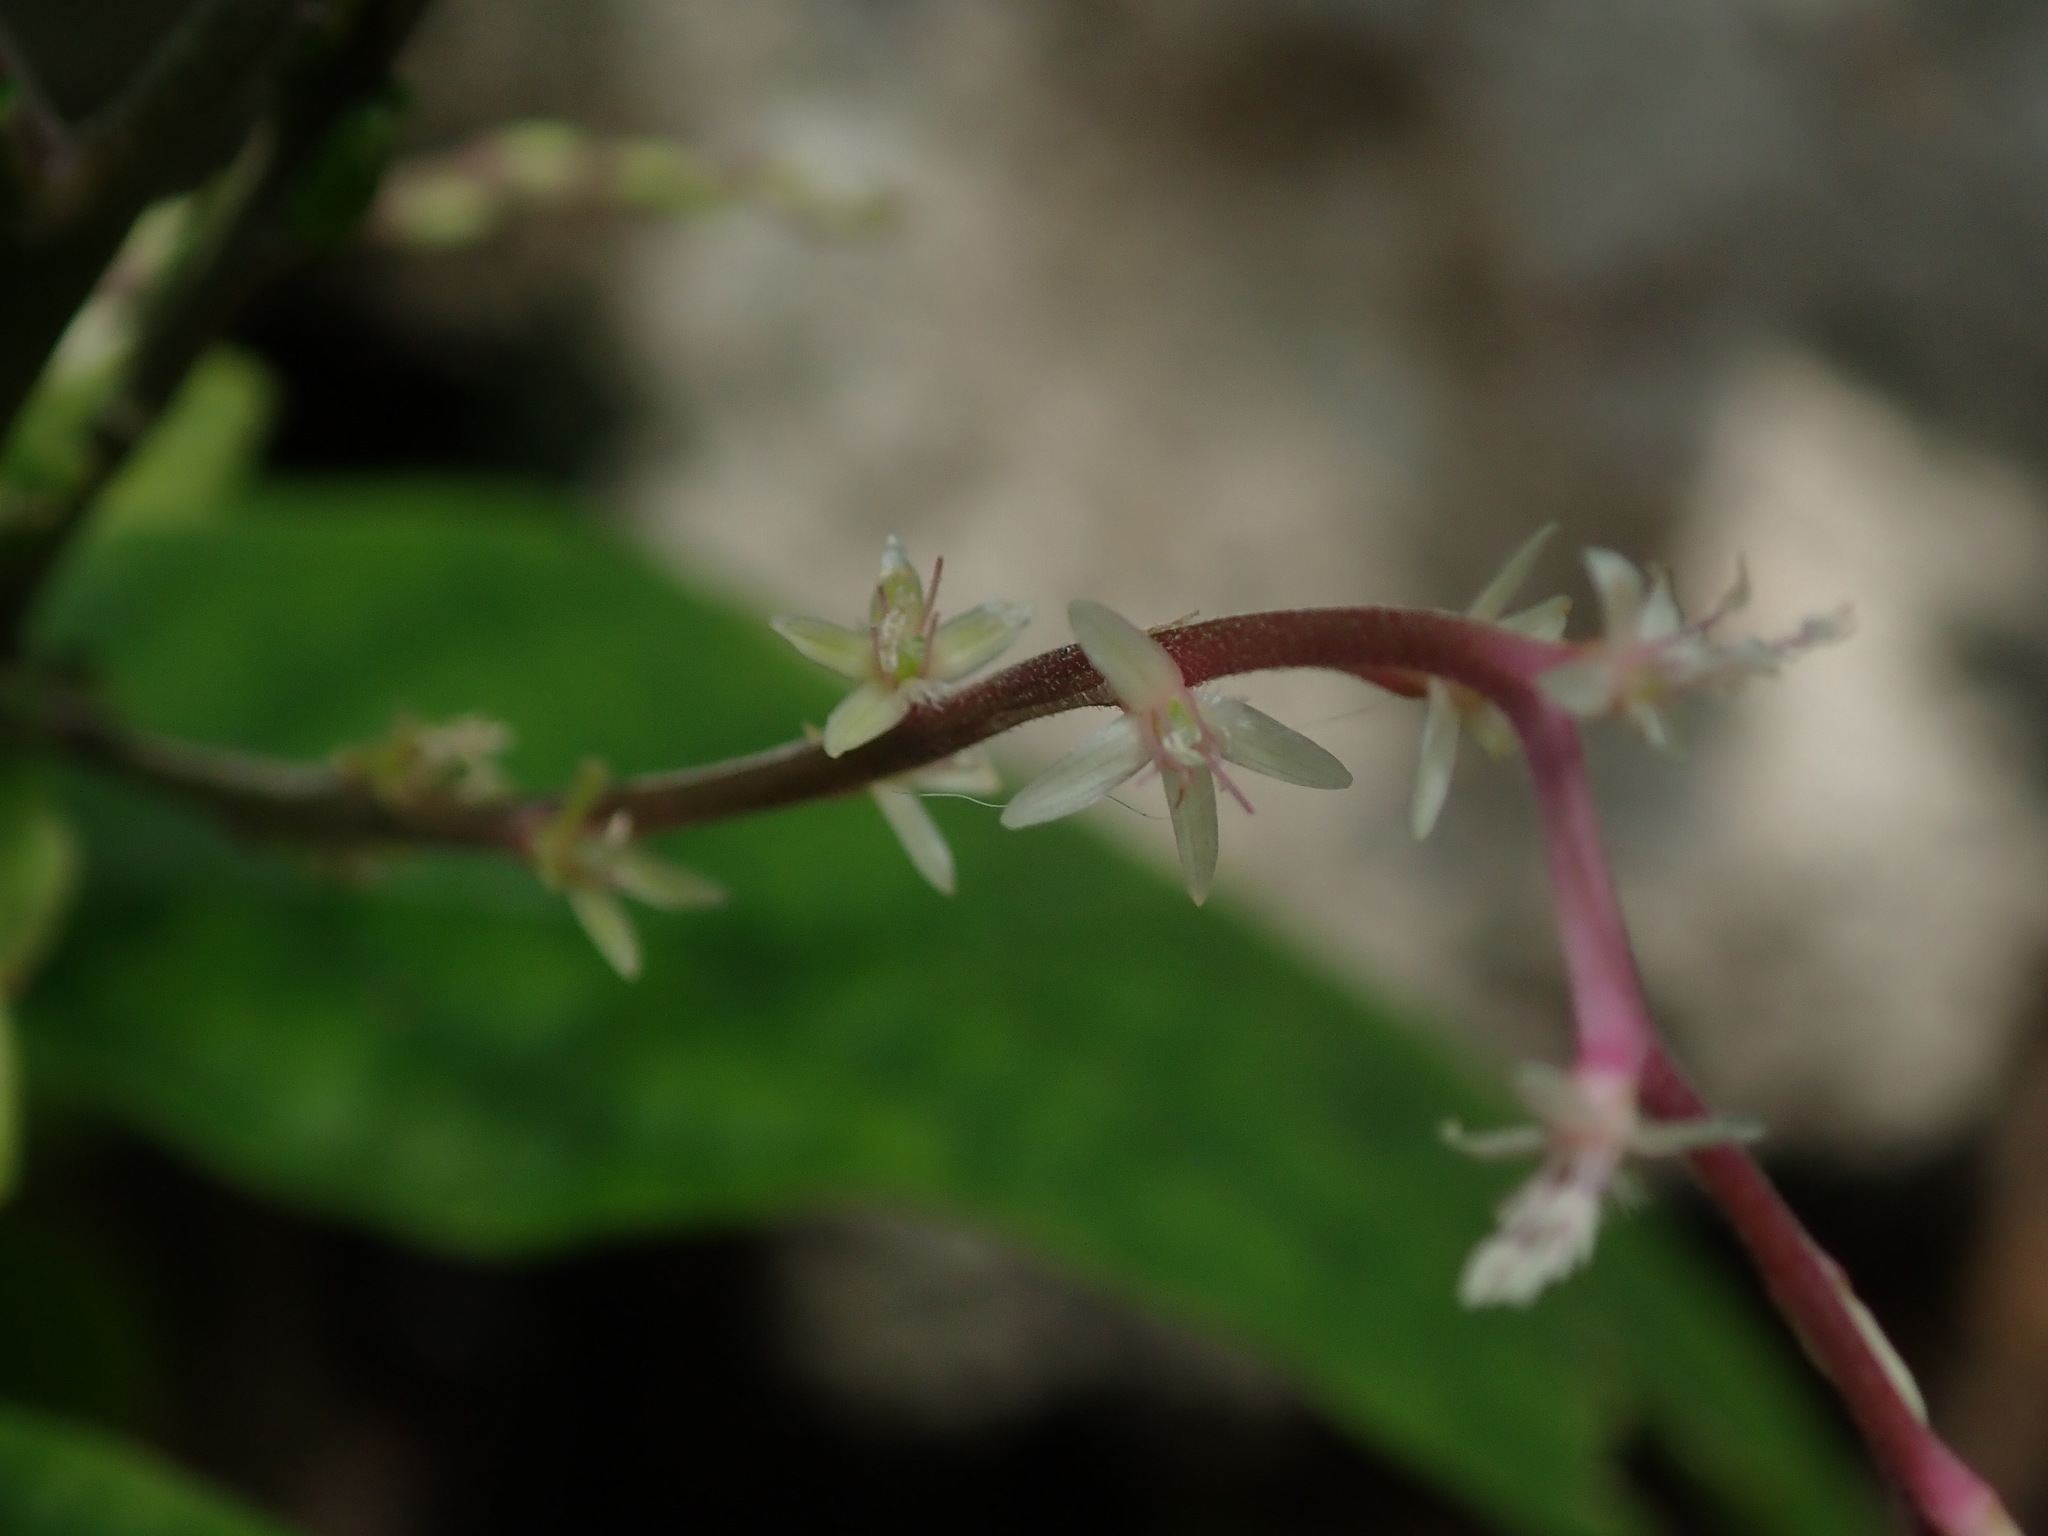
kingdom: Plantae
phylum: Tracheophyta
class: Magnoliopsida
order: Caryophyllales
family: Phytolaccaceae
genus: Petiveria
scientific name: Petiveria alliacea
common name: Garlicweed
